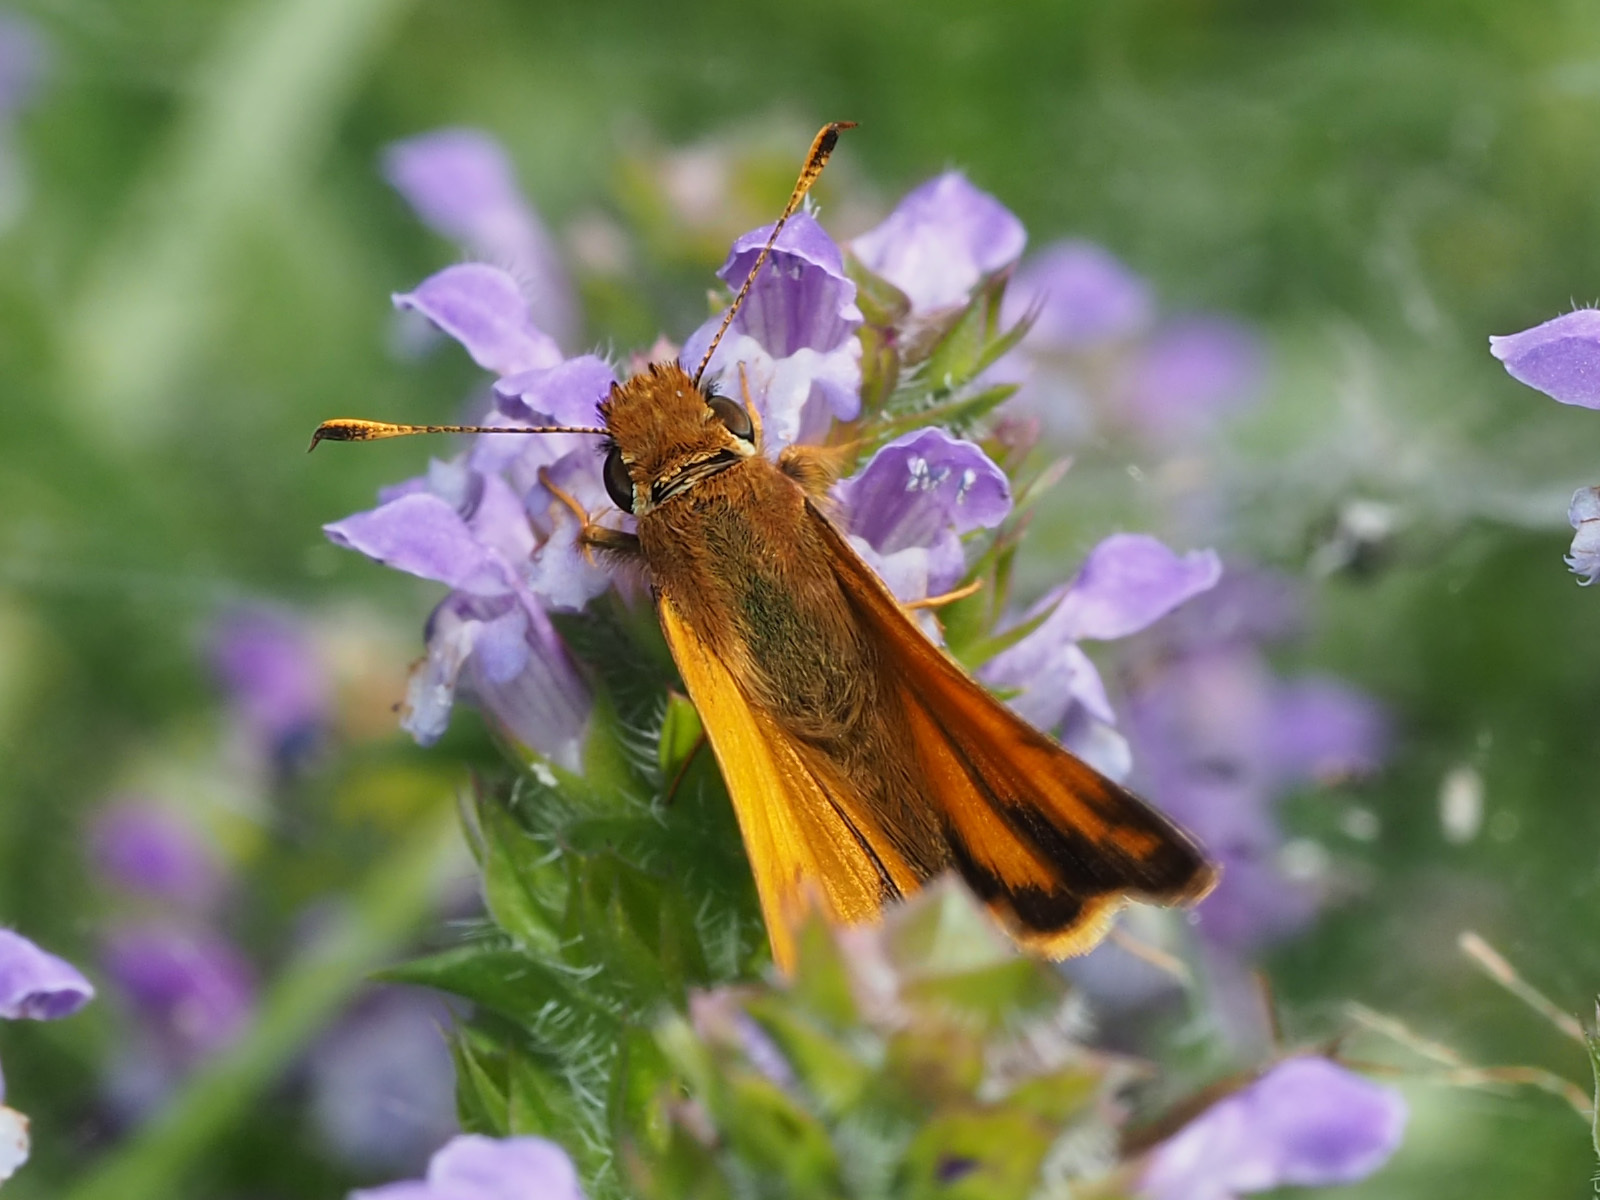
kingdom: Animalia
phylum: Arthropoda
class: Insecta
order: Lepidoptera
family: Hesperiidae
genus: Lon
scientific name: Lon zabulon
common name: Zabulon skipper
